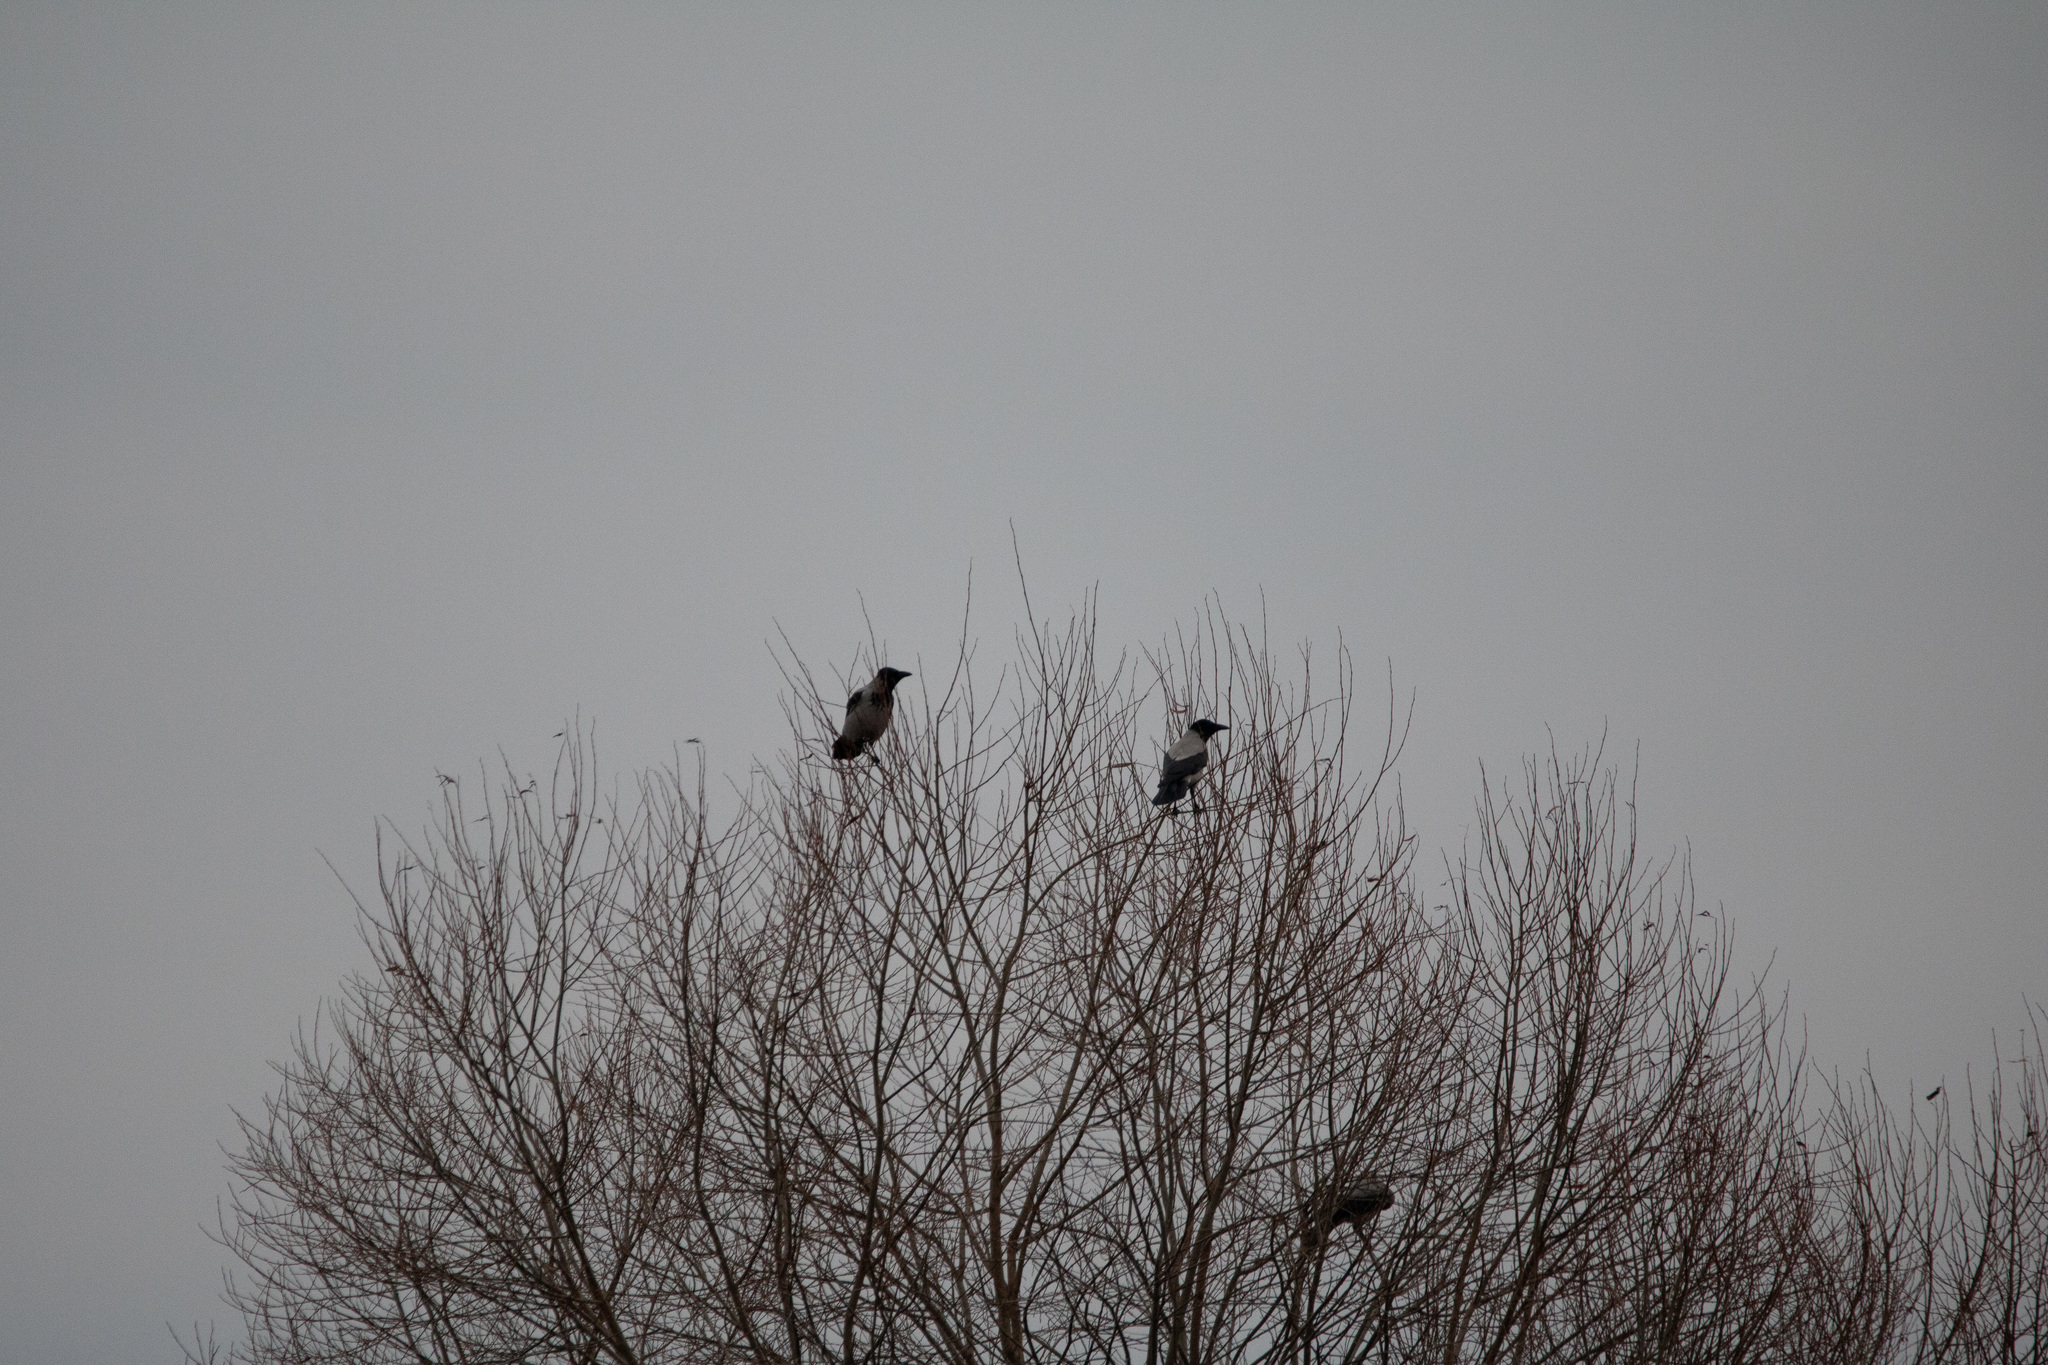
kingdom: Animalia
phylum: Chordata
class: Aves
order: Passeriformes
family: Corvidae
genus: Corvus
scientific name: Corvus cornix
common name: Hooded crow
